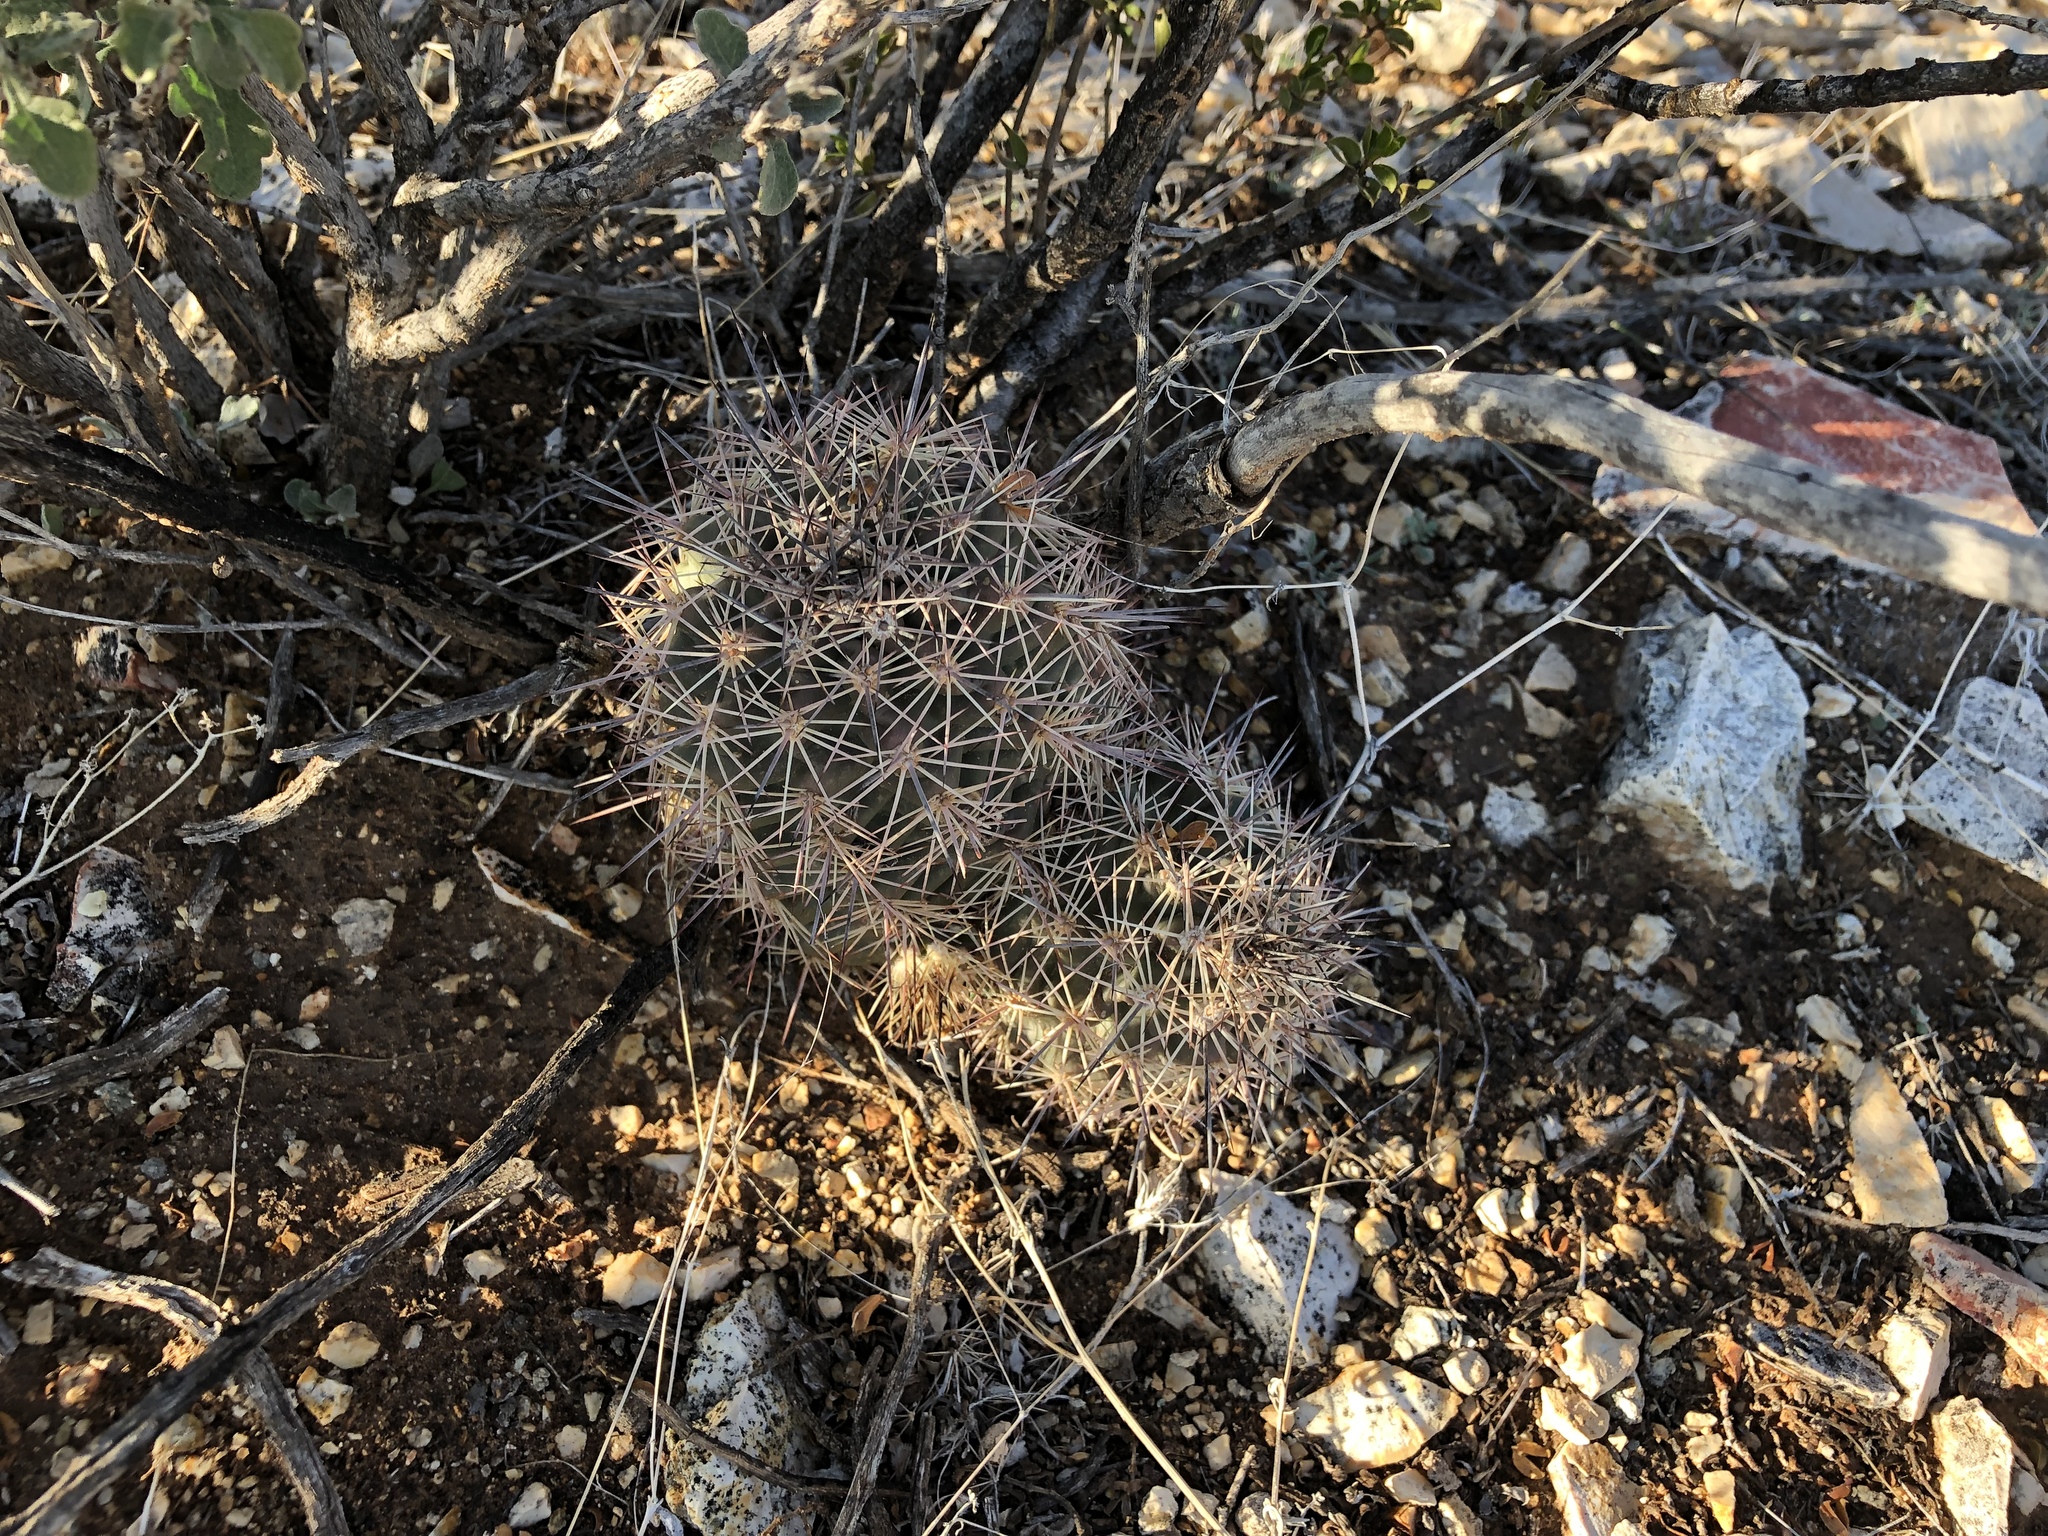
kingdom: Plantae
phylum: Tracheophyta
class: Magnoliopsida
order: Caryophyllales
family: Cactaceae
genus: Echinocereus
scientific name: Echinocereus coccineus
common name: Scarlet hedgehog cactus
